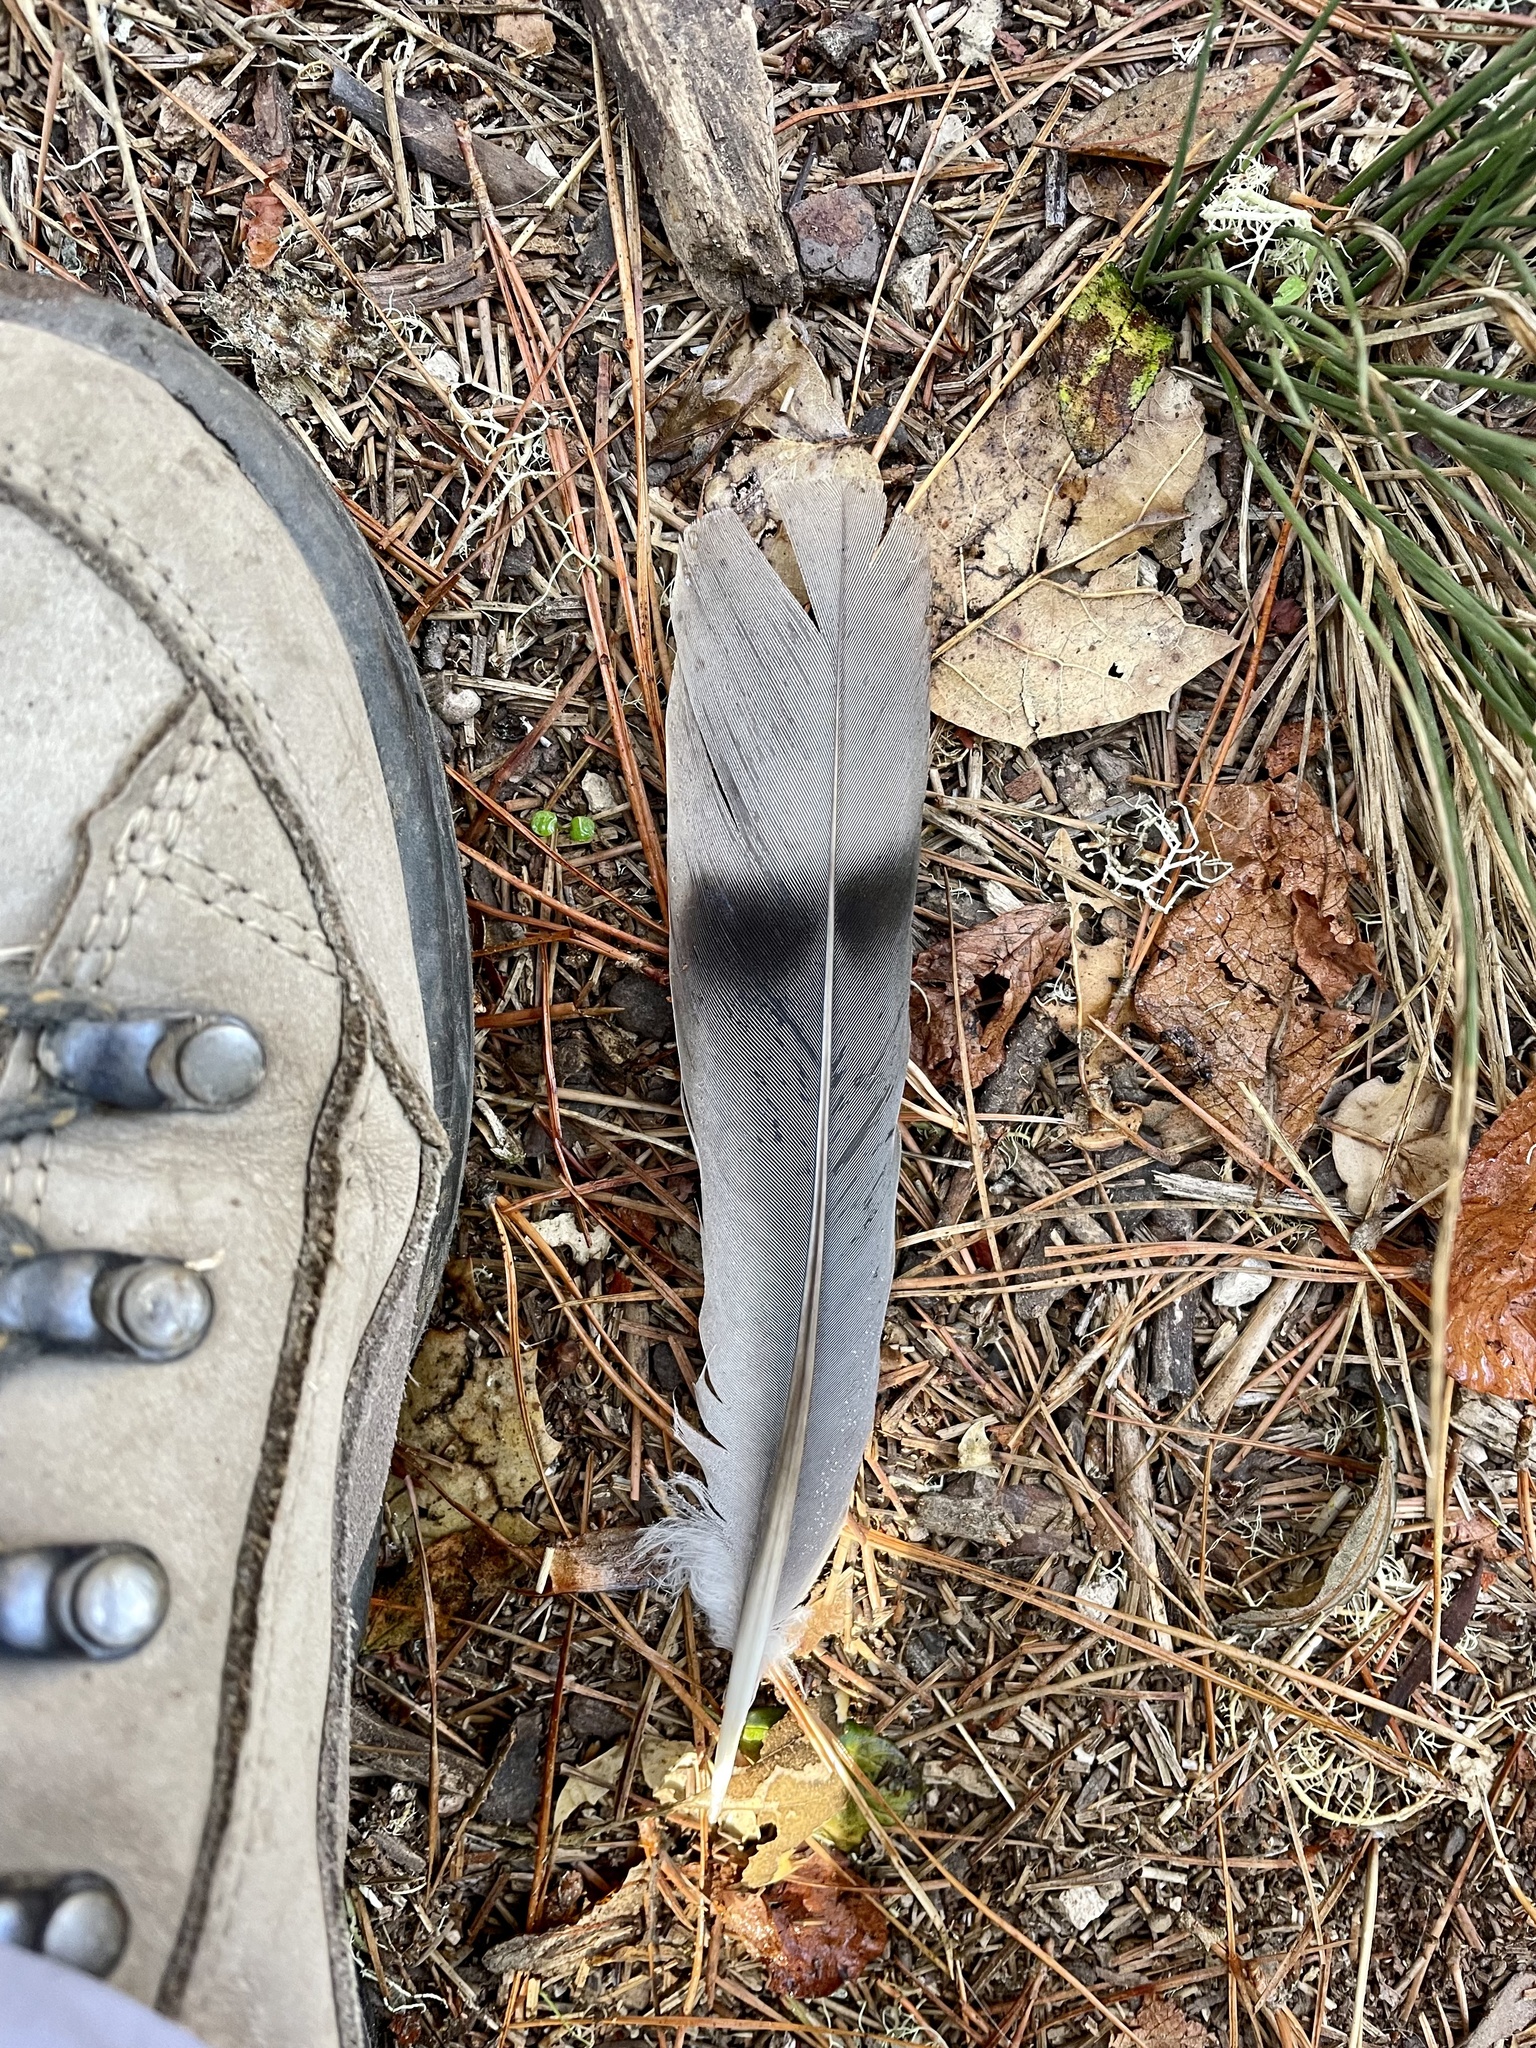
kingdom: Animalia
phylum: Chordata
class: Aves
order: Columbiformes
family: Columbidae
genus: Patagioenas
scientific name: Patagioenas fasciata
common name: Band-tailed pigeon
